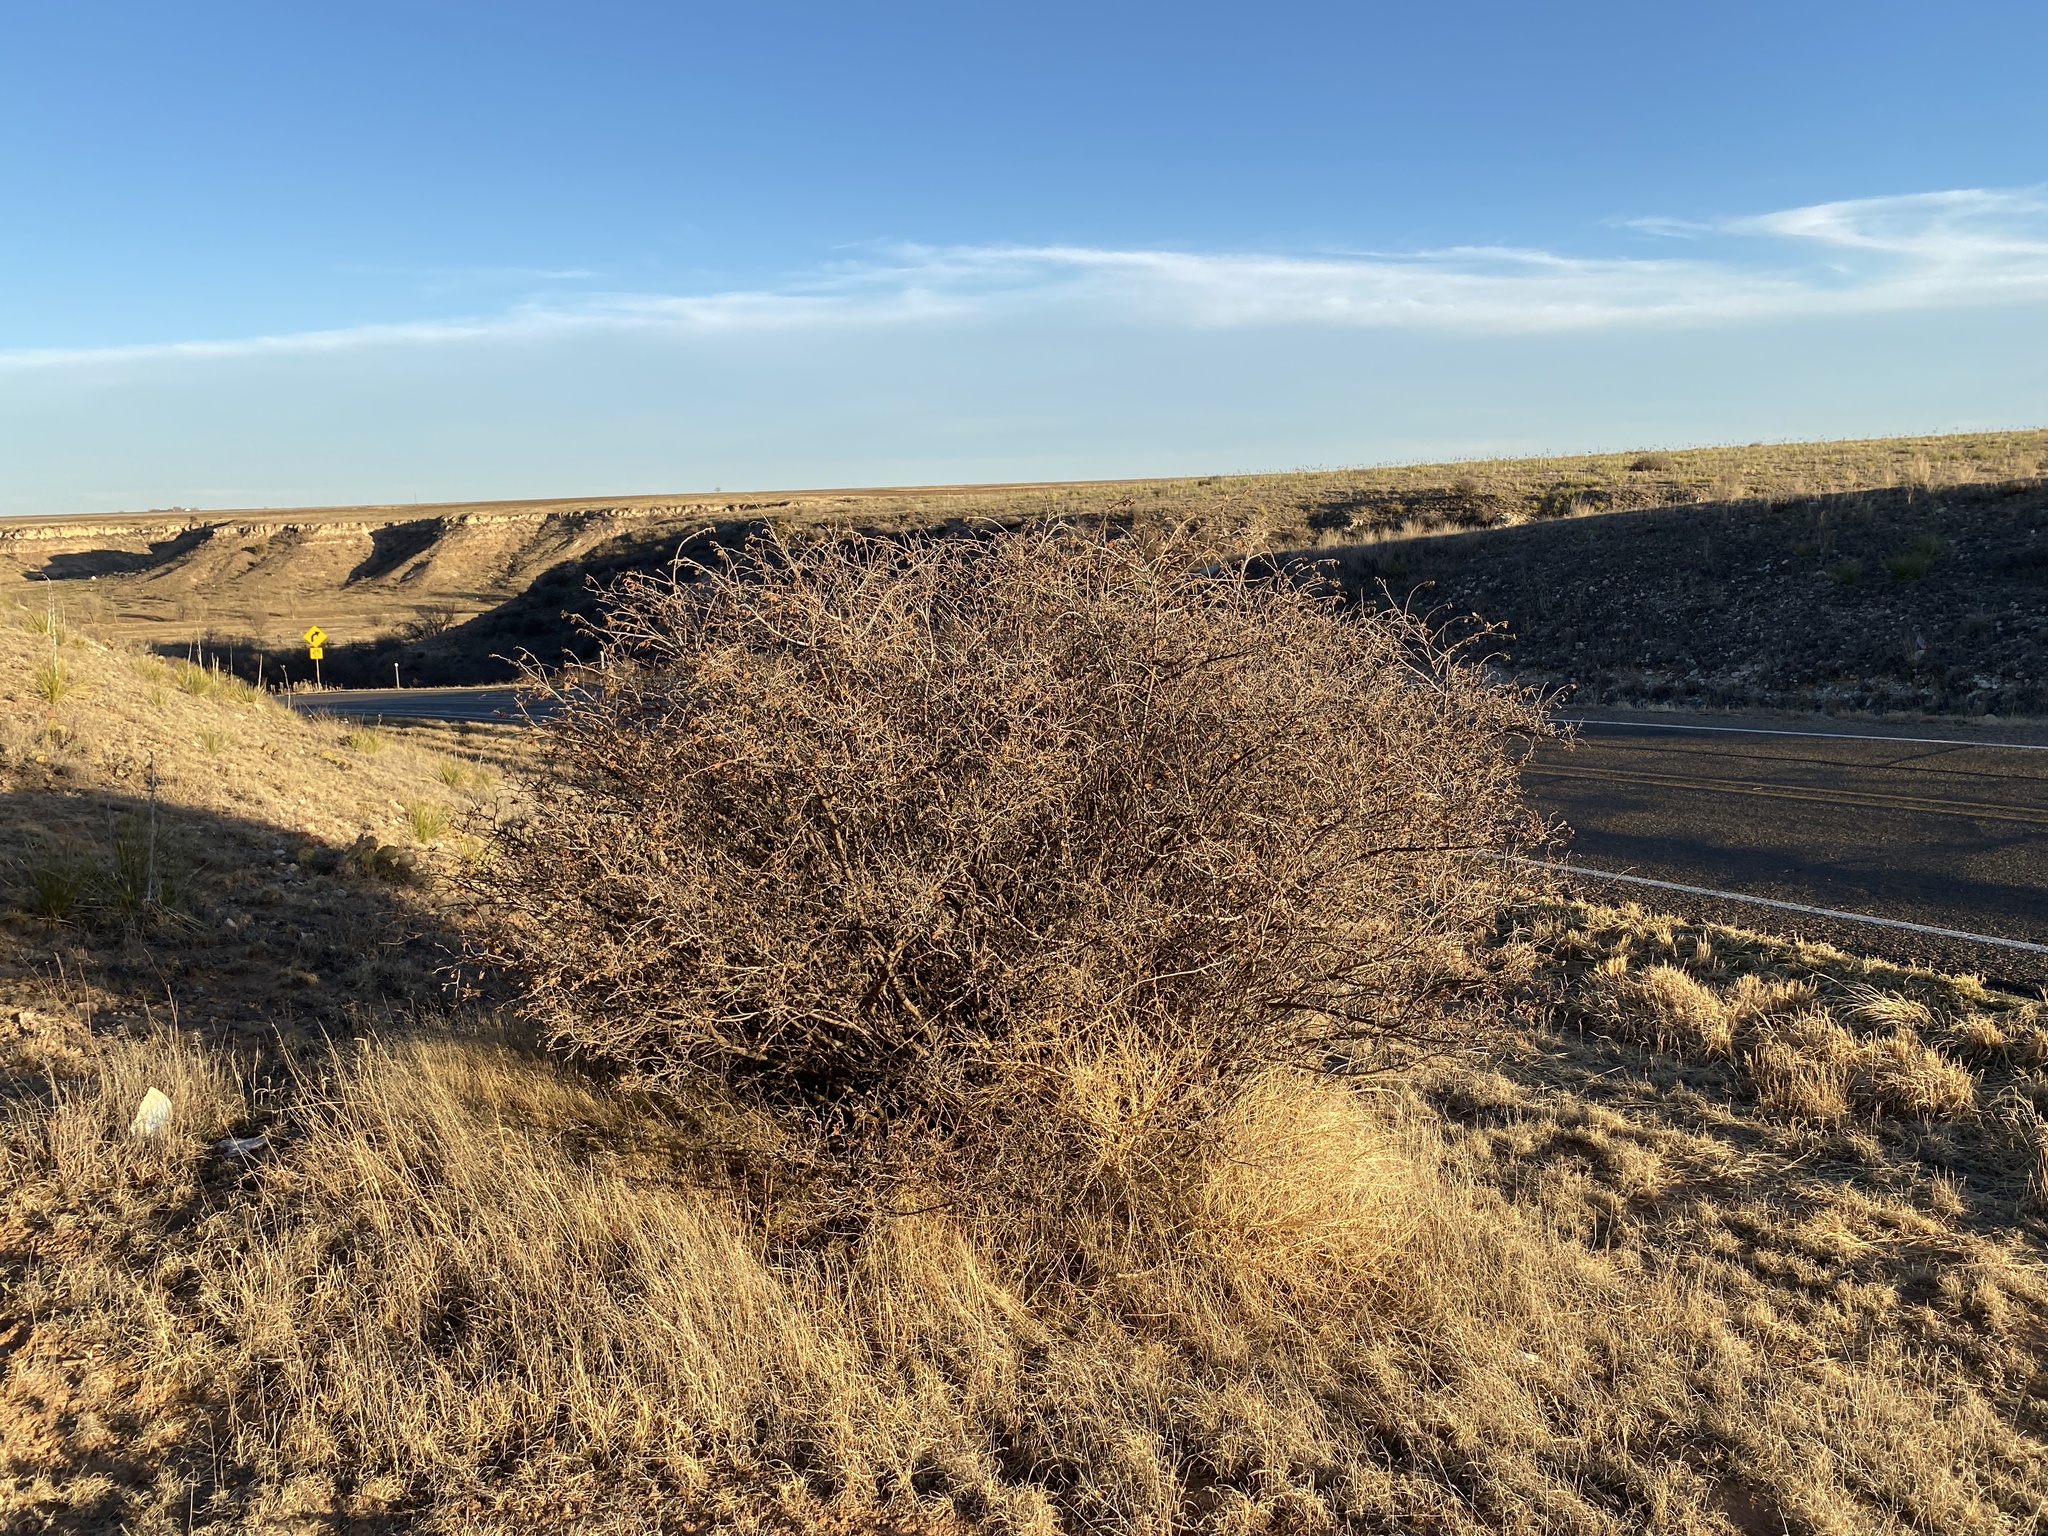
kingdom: Plantae
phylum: Tracheophyta
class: Magnoliopsida
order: Sapindales
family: Anacardiaceae
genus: Rhus
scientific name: Rhus aromatica
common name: Aromatic sumac
